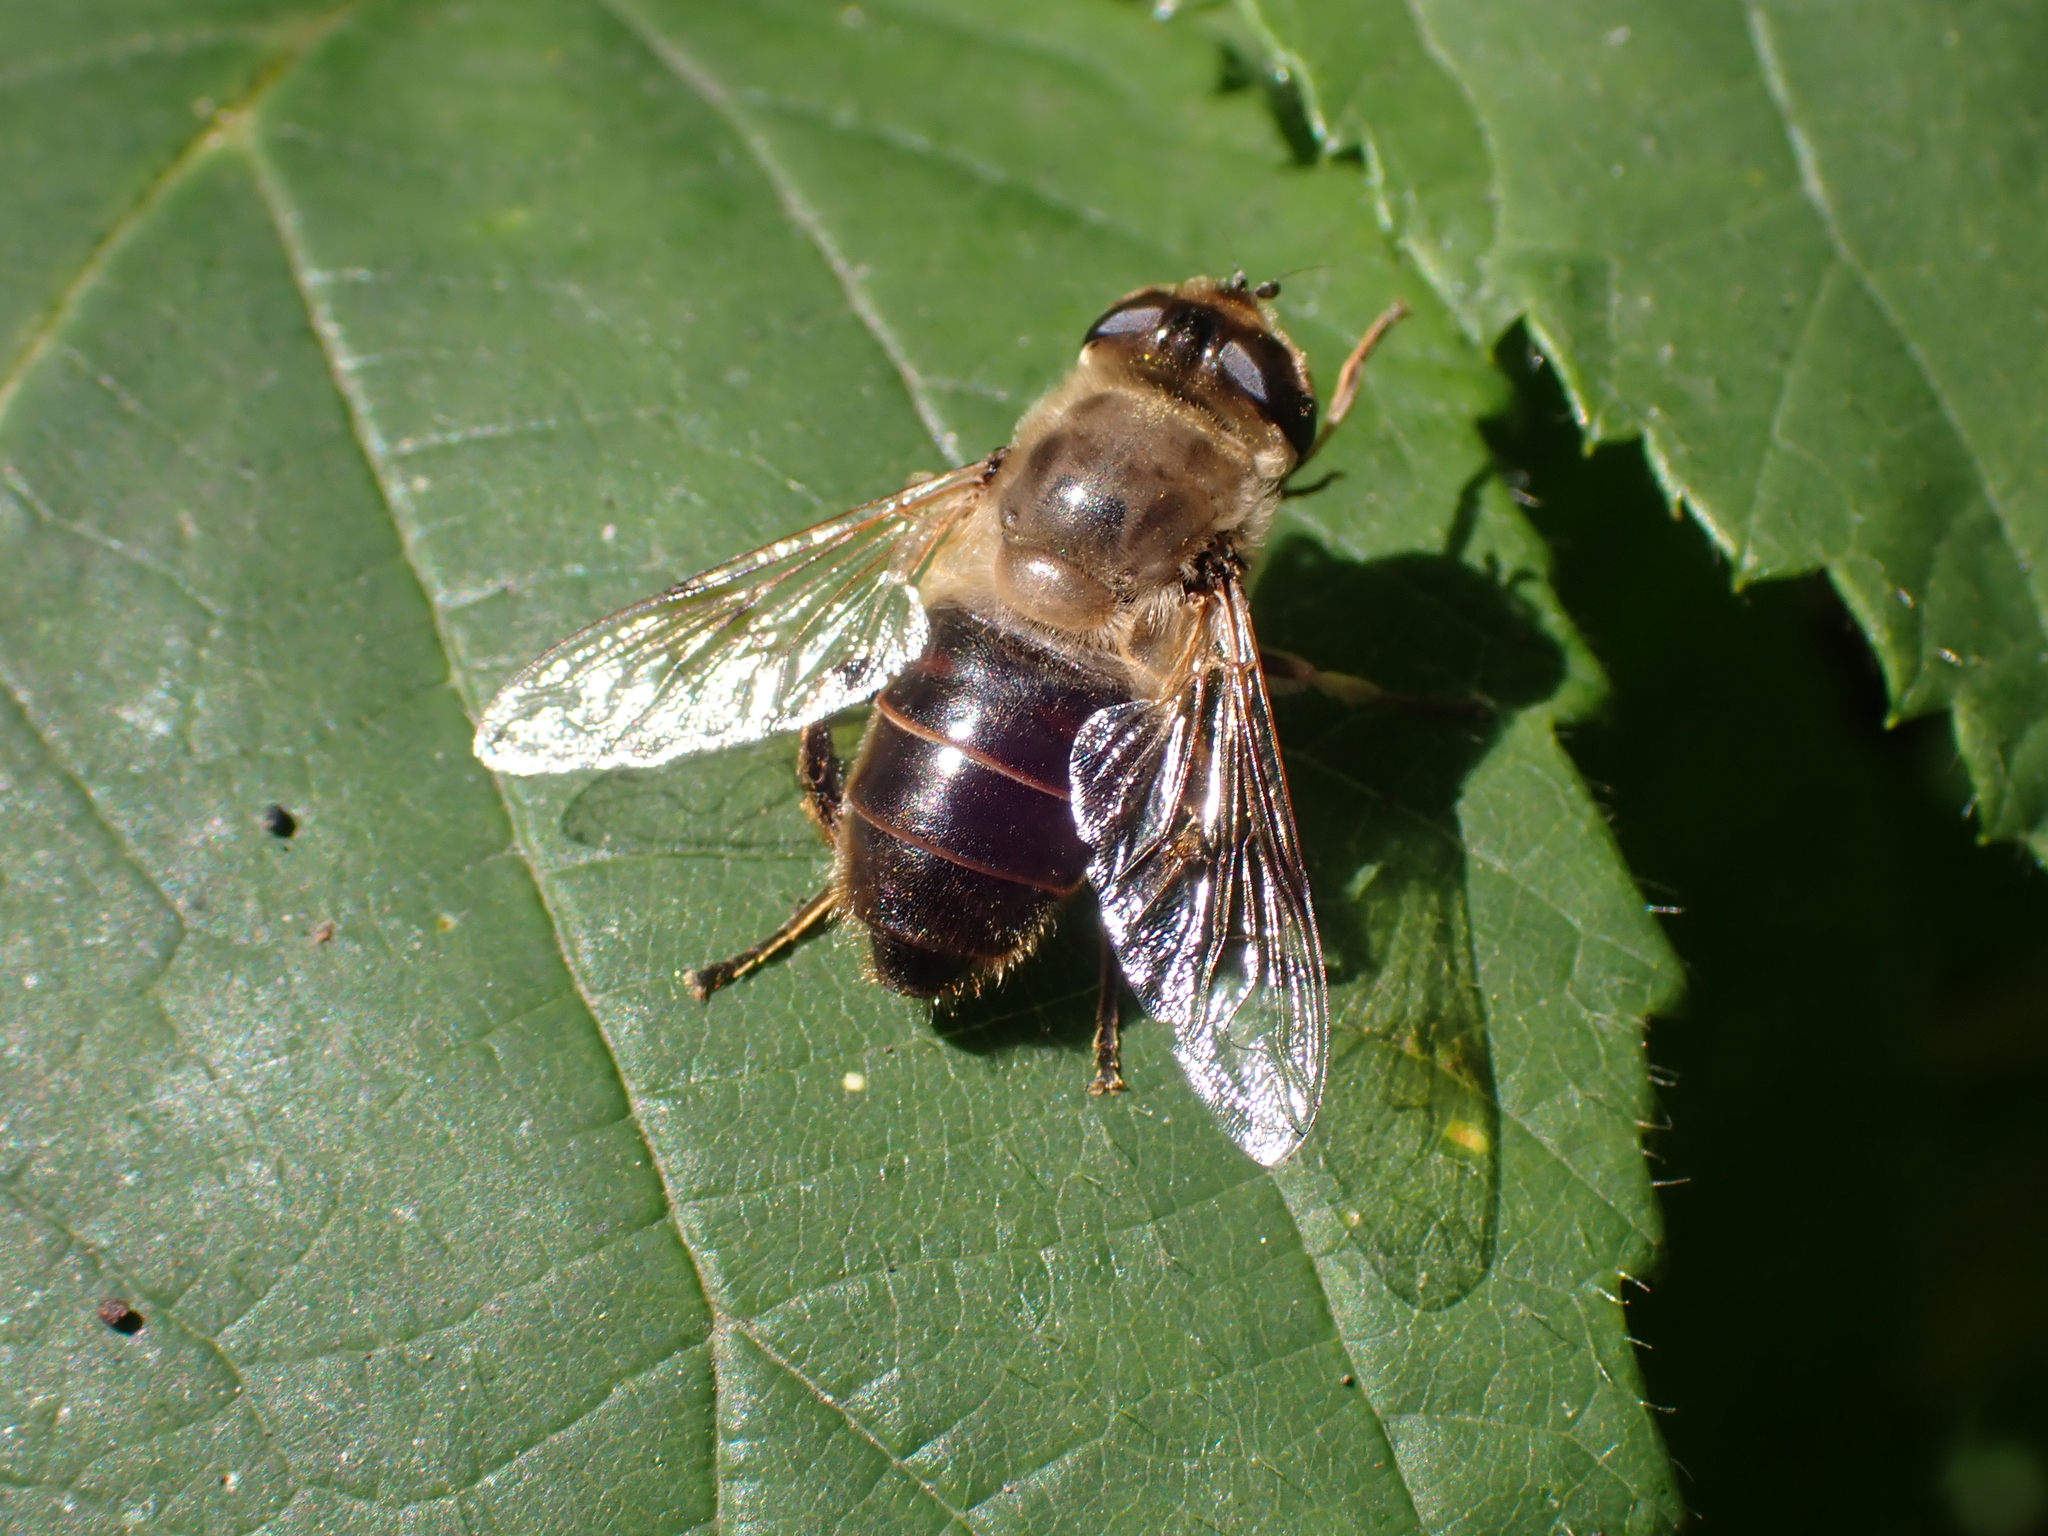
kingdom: Animalia
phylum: Arthropoda
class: Insecta
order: Diptera
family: Syrphidae
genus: Eristalis
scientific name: Eristalis tenax
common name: Drone fly
